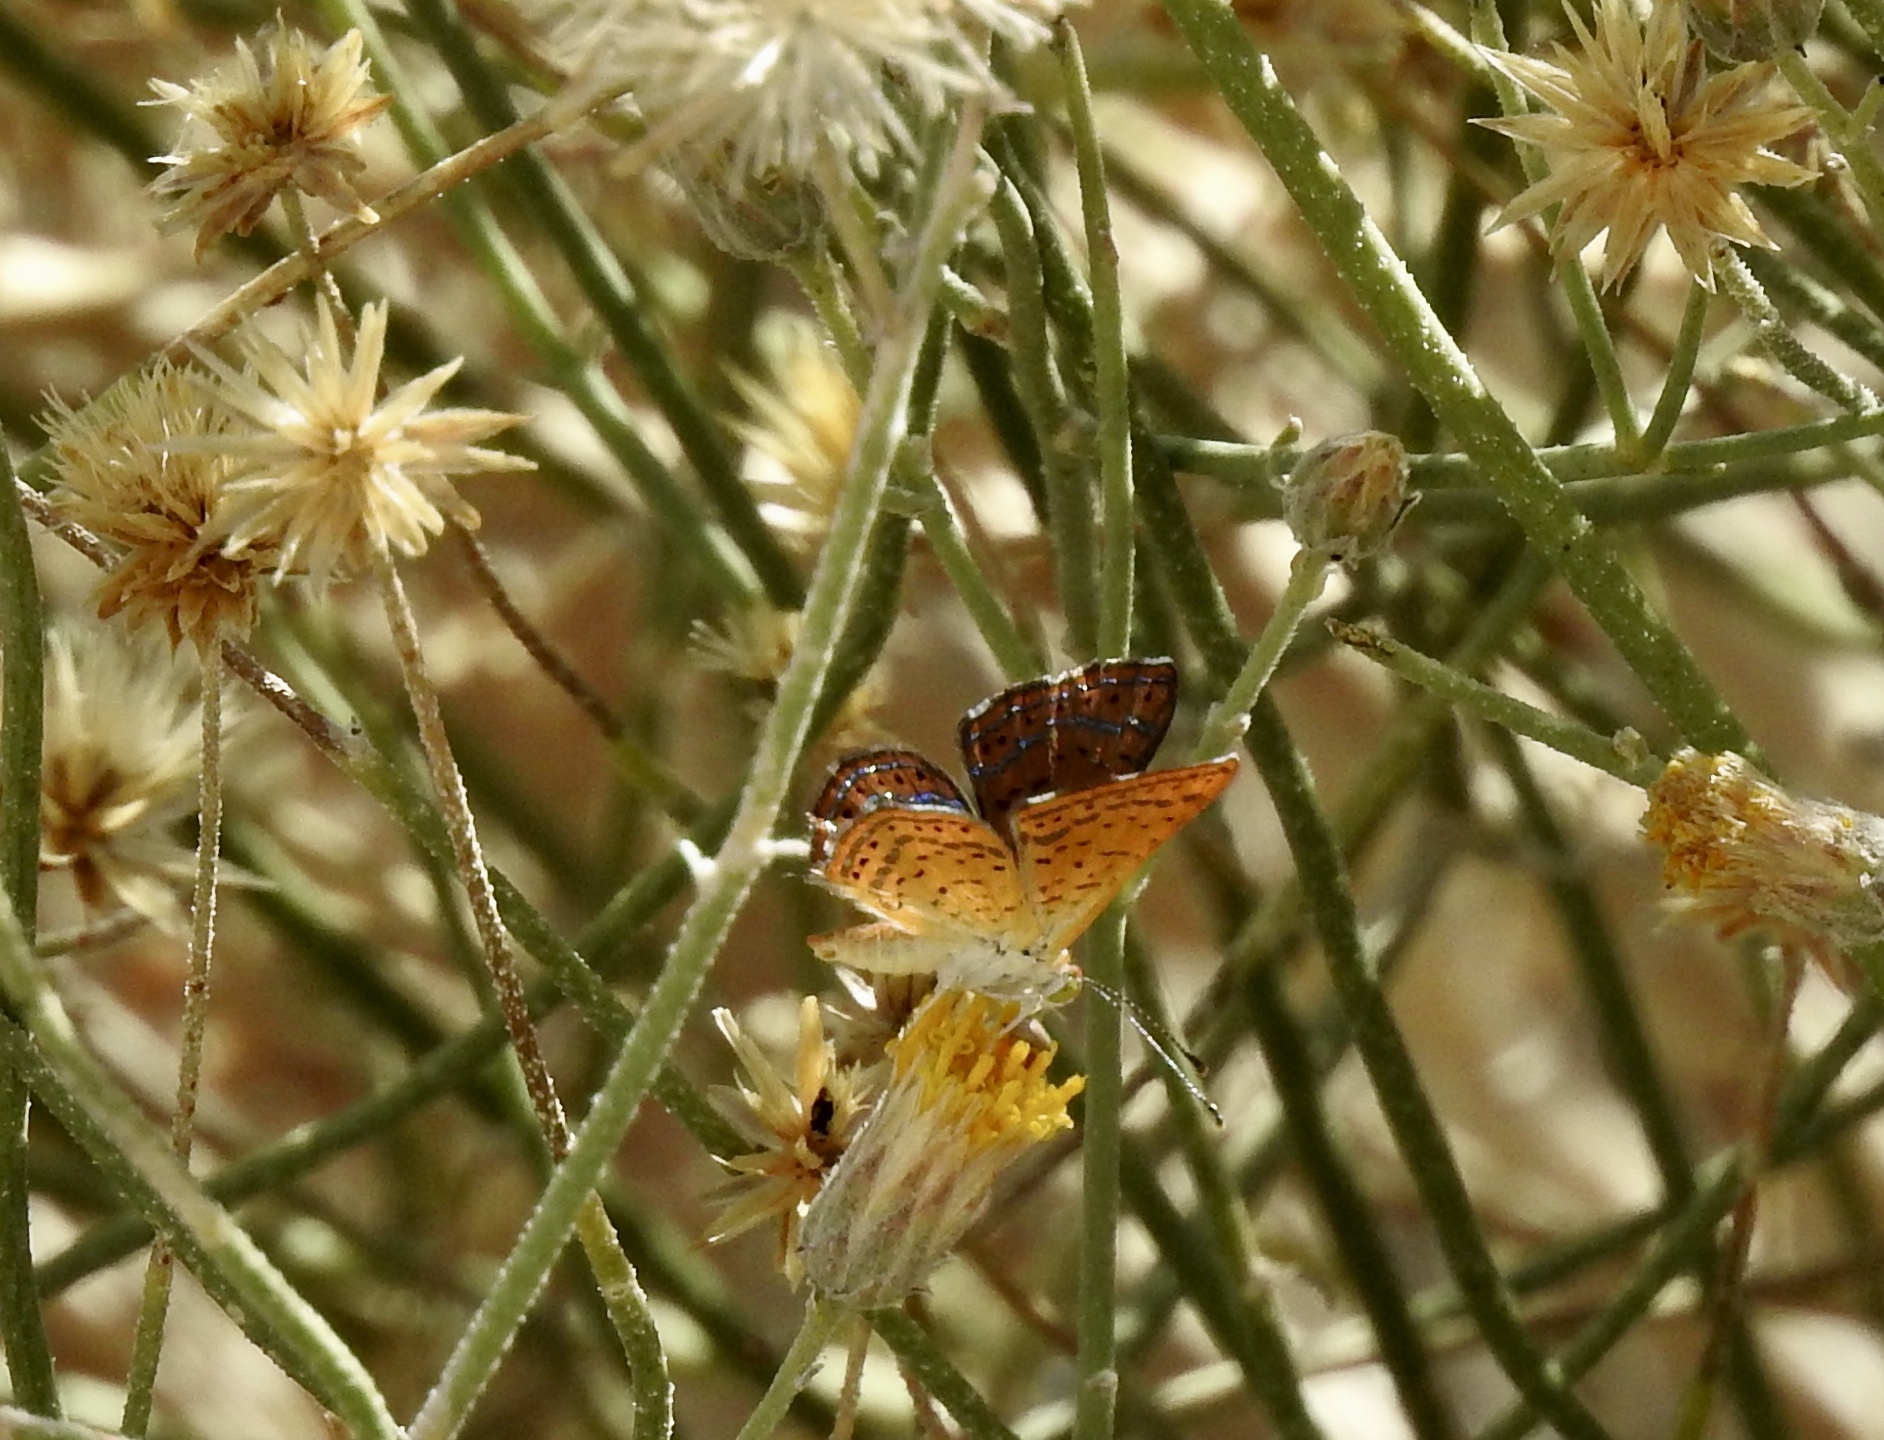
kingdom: Animalia
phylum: Arthropoda
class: Insecta
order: Lepidoptera
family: Lycaenidae
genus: Emesis
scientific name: Emesis wrighti
